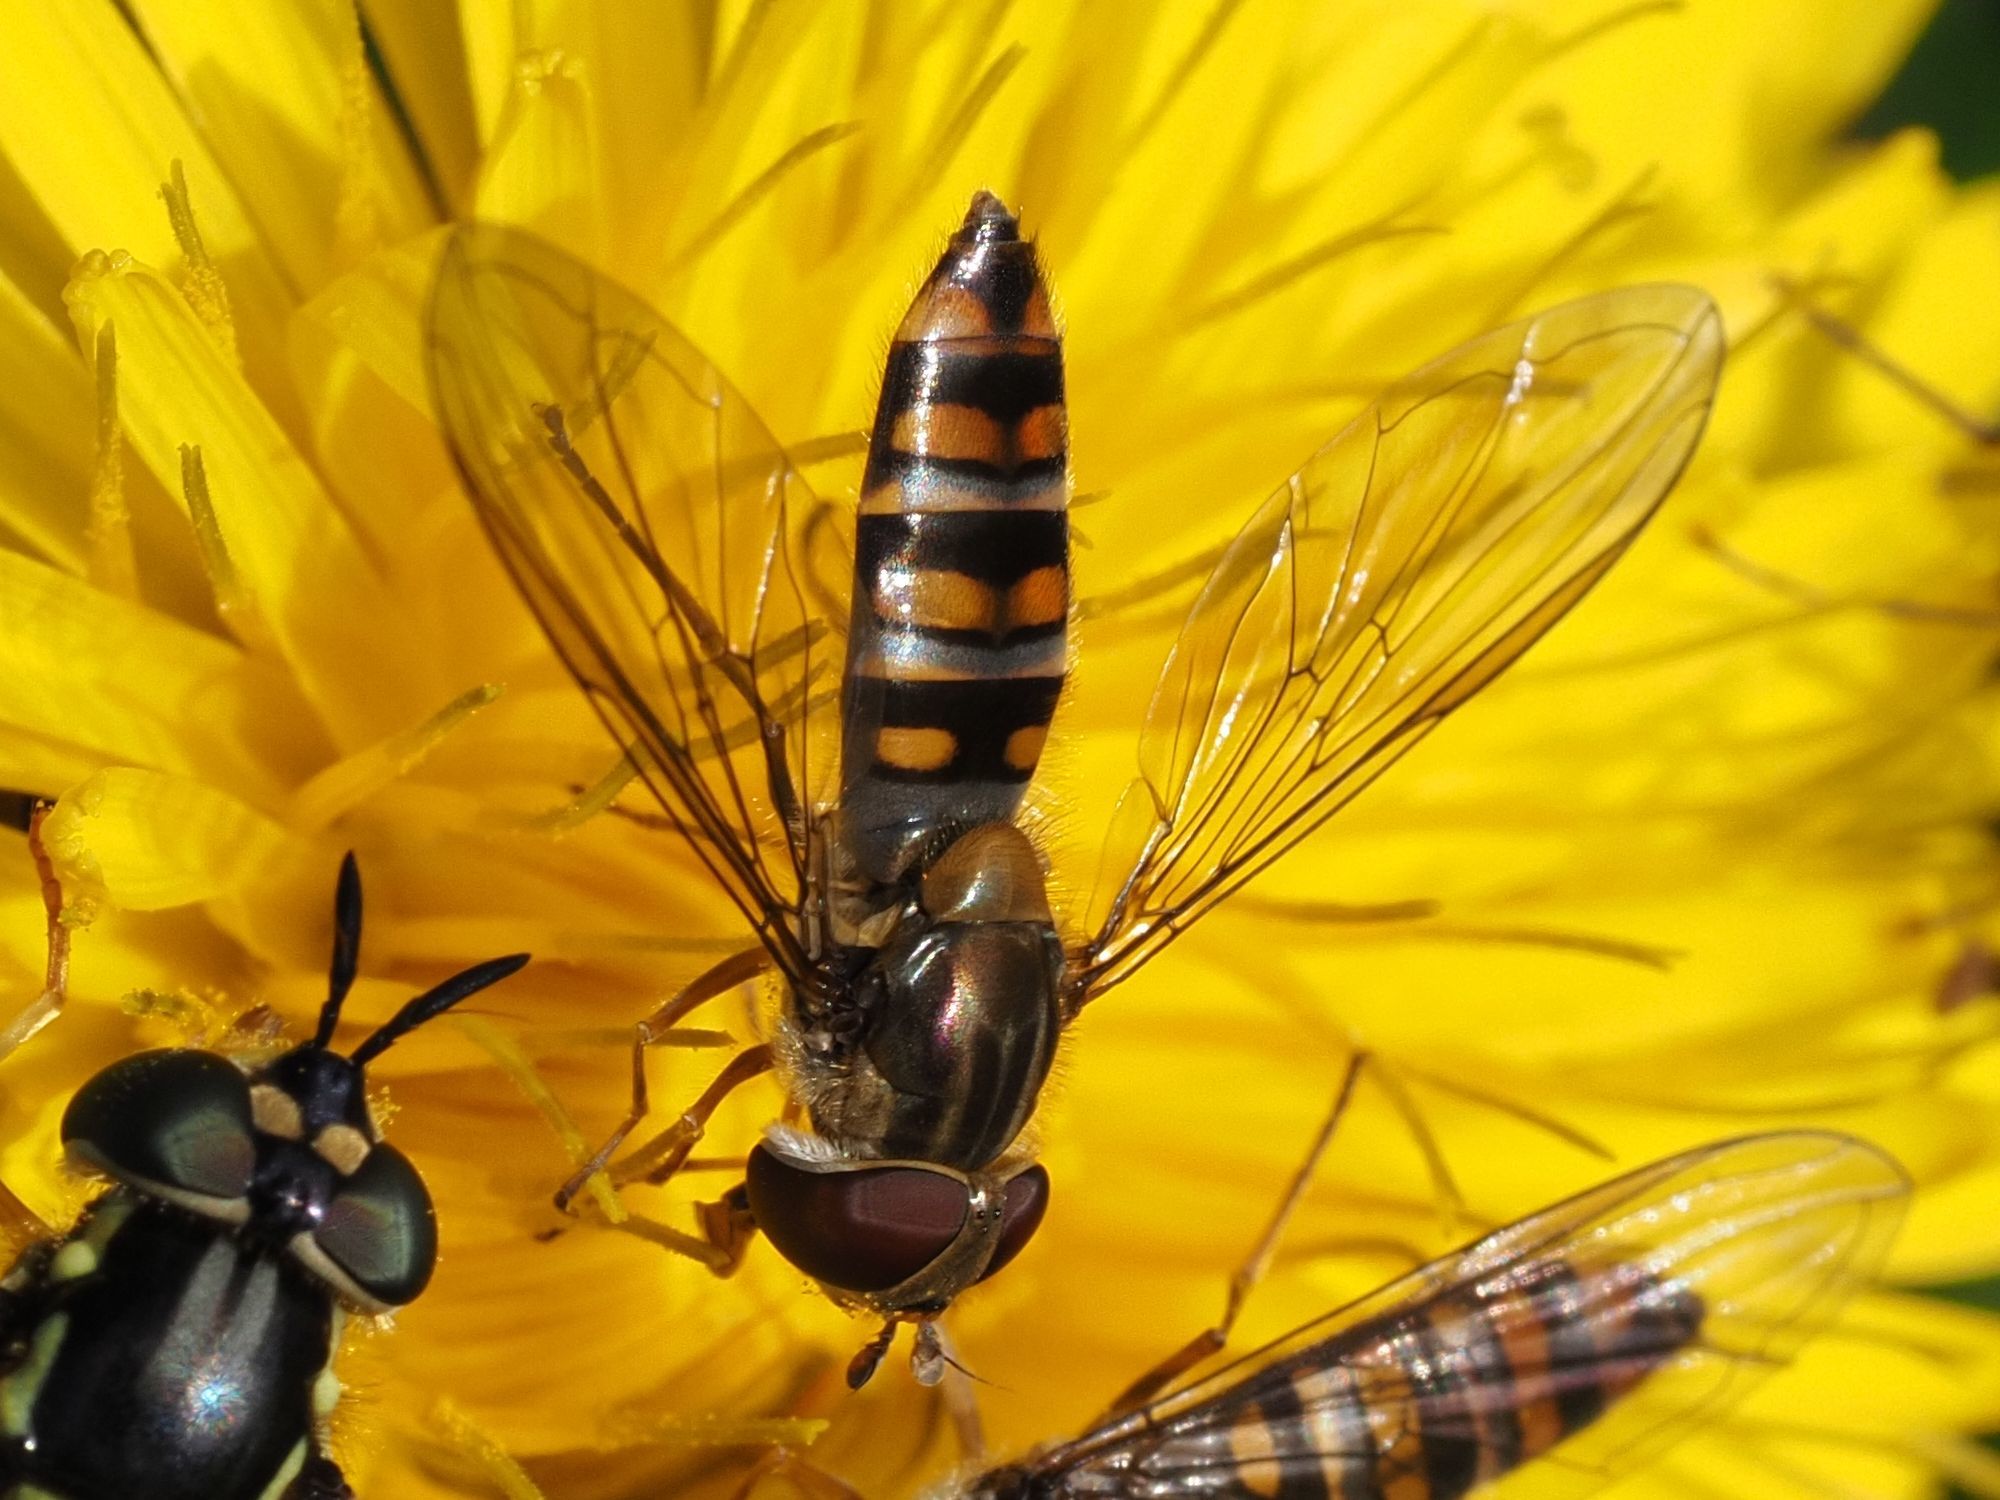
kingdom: Animalia
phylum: Arthropoda
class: Insecta
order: Diptera
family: Syrphidae
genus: Episyrphus
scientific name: Episyrphus balteatus
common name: Marmalade hoverfly
